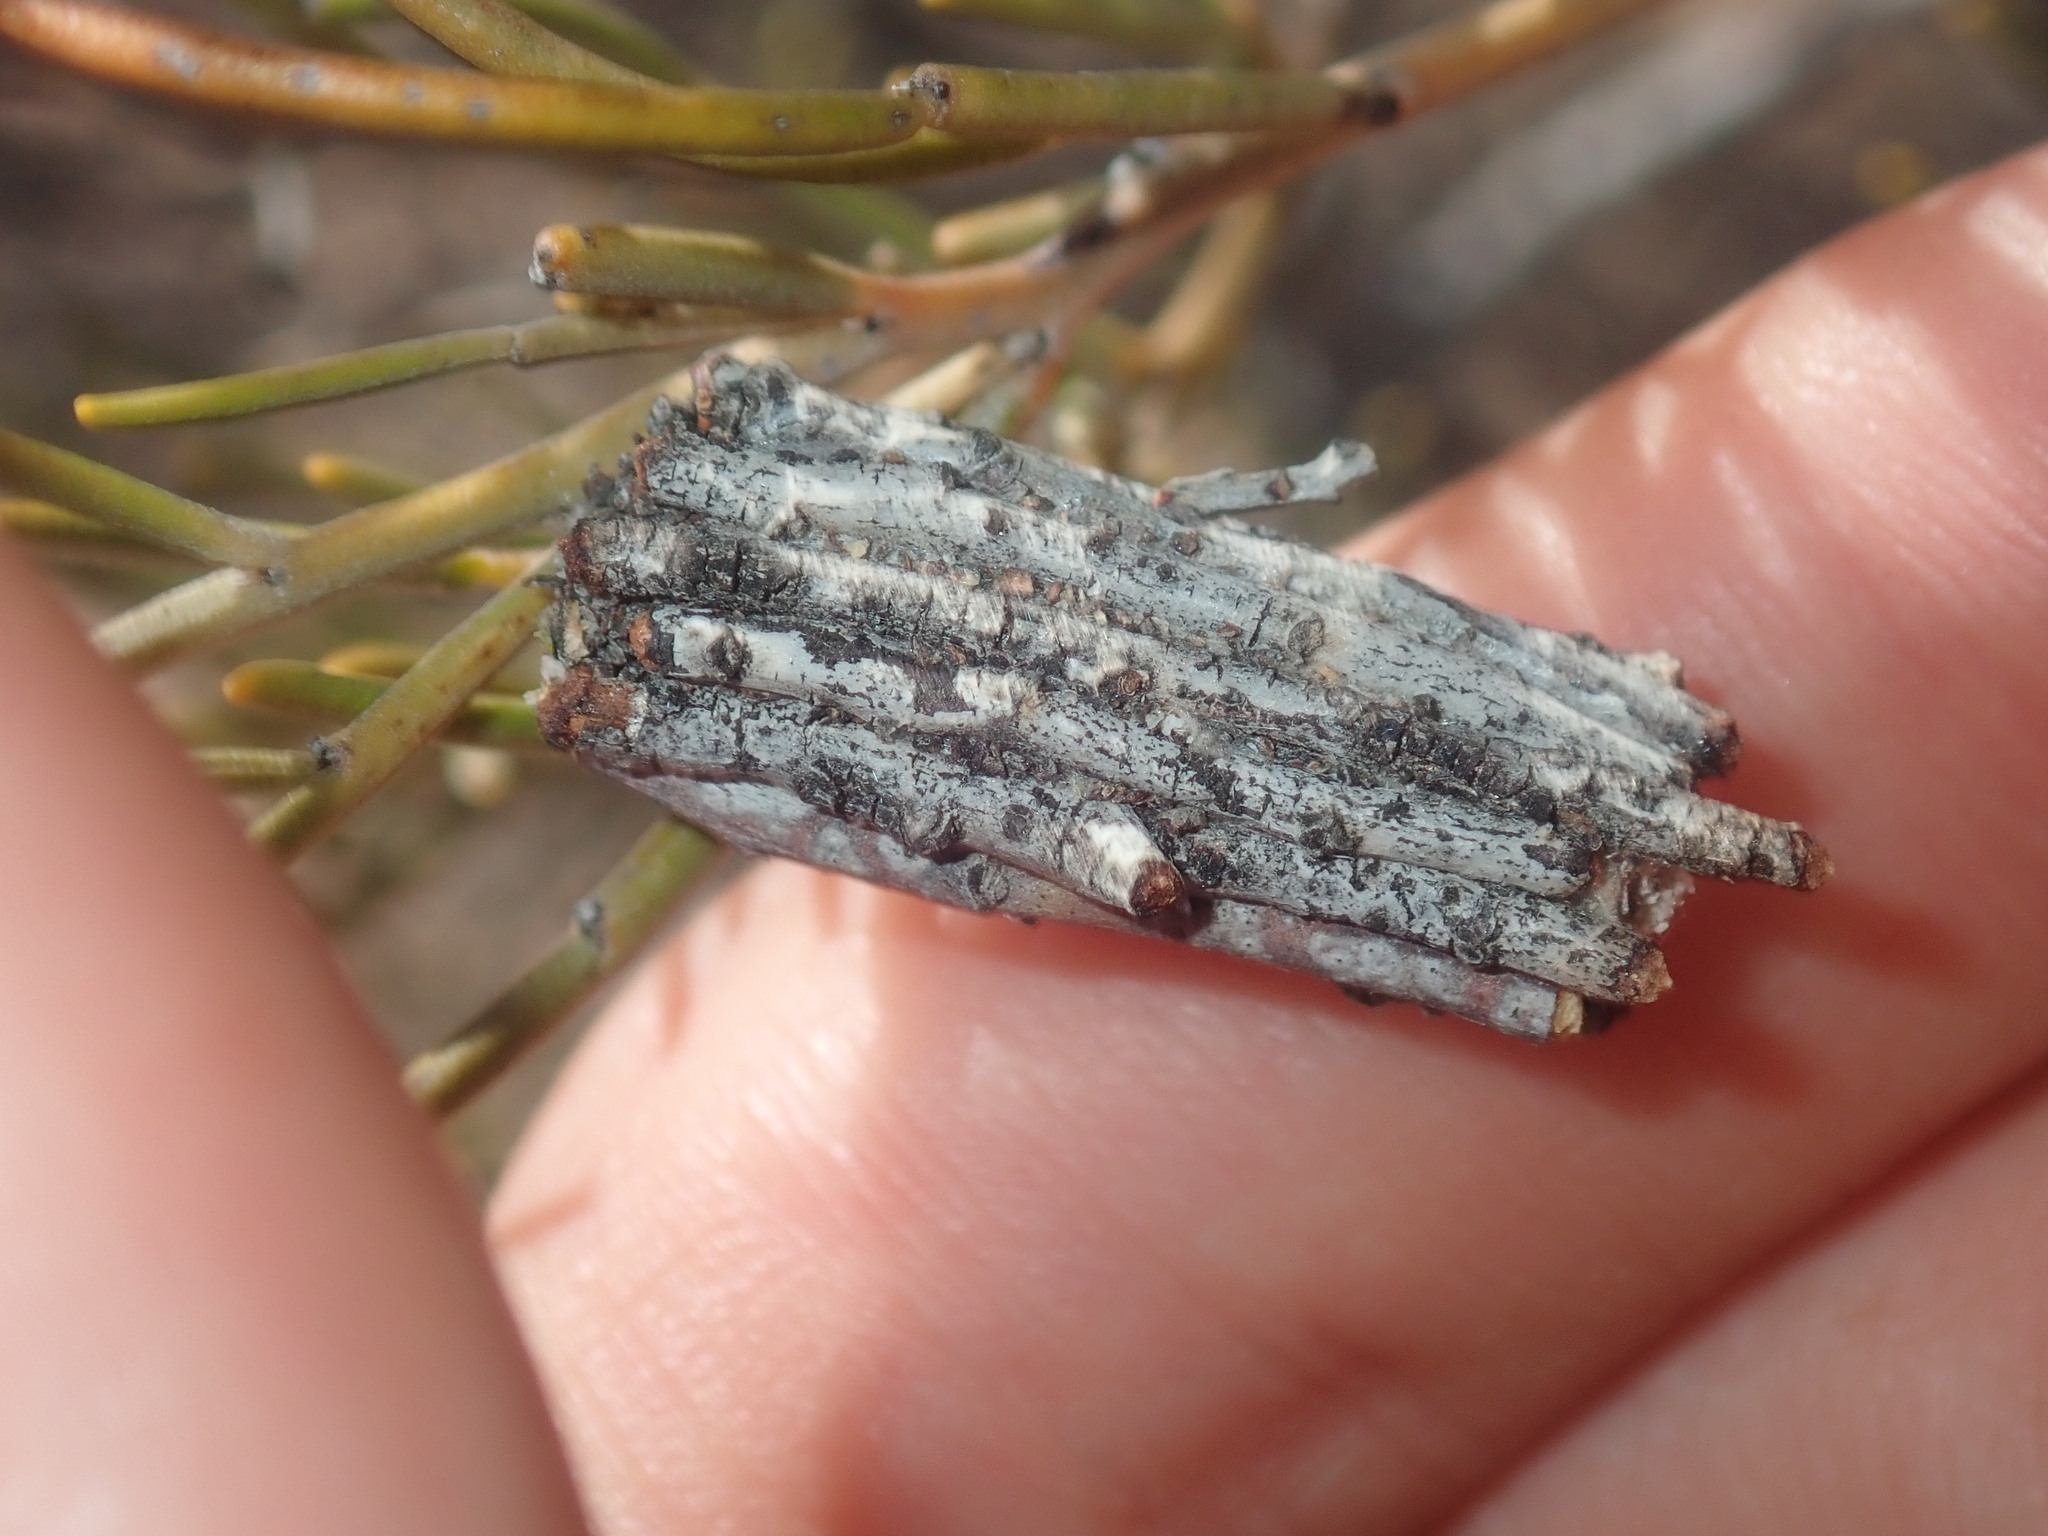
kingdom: Animalia
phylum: Arthropoda
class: Insecta
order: Hemiptera
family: Pentatomidae
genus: Anaxilaus
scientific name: Anaxilaus
